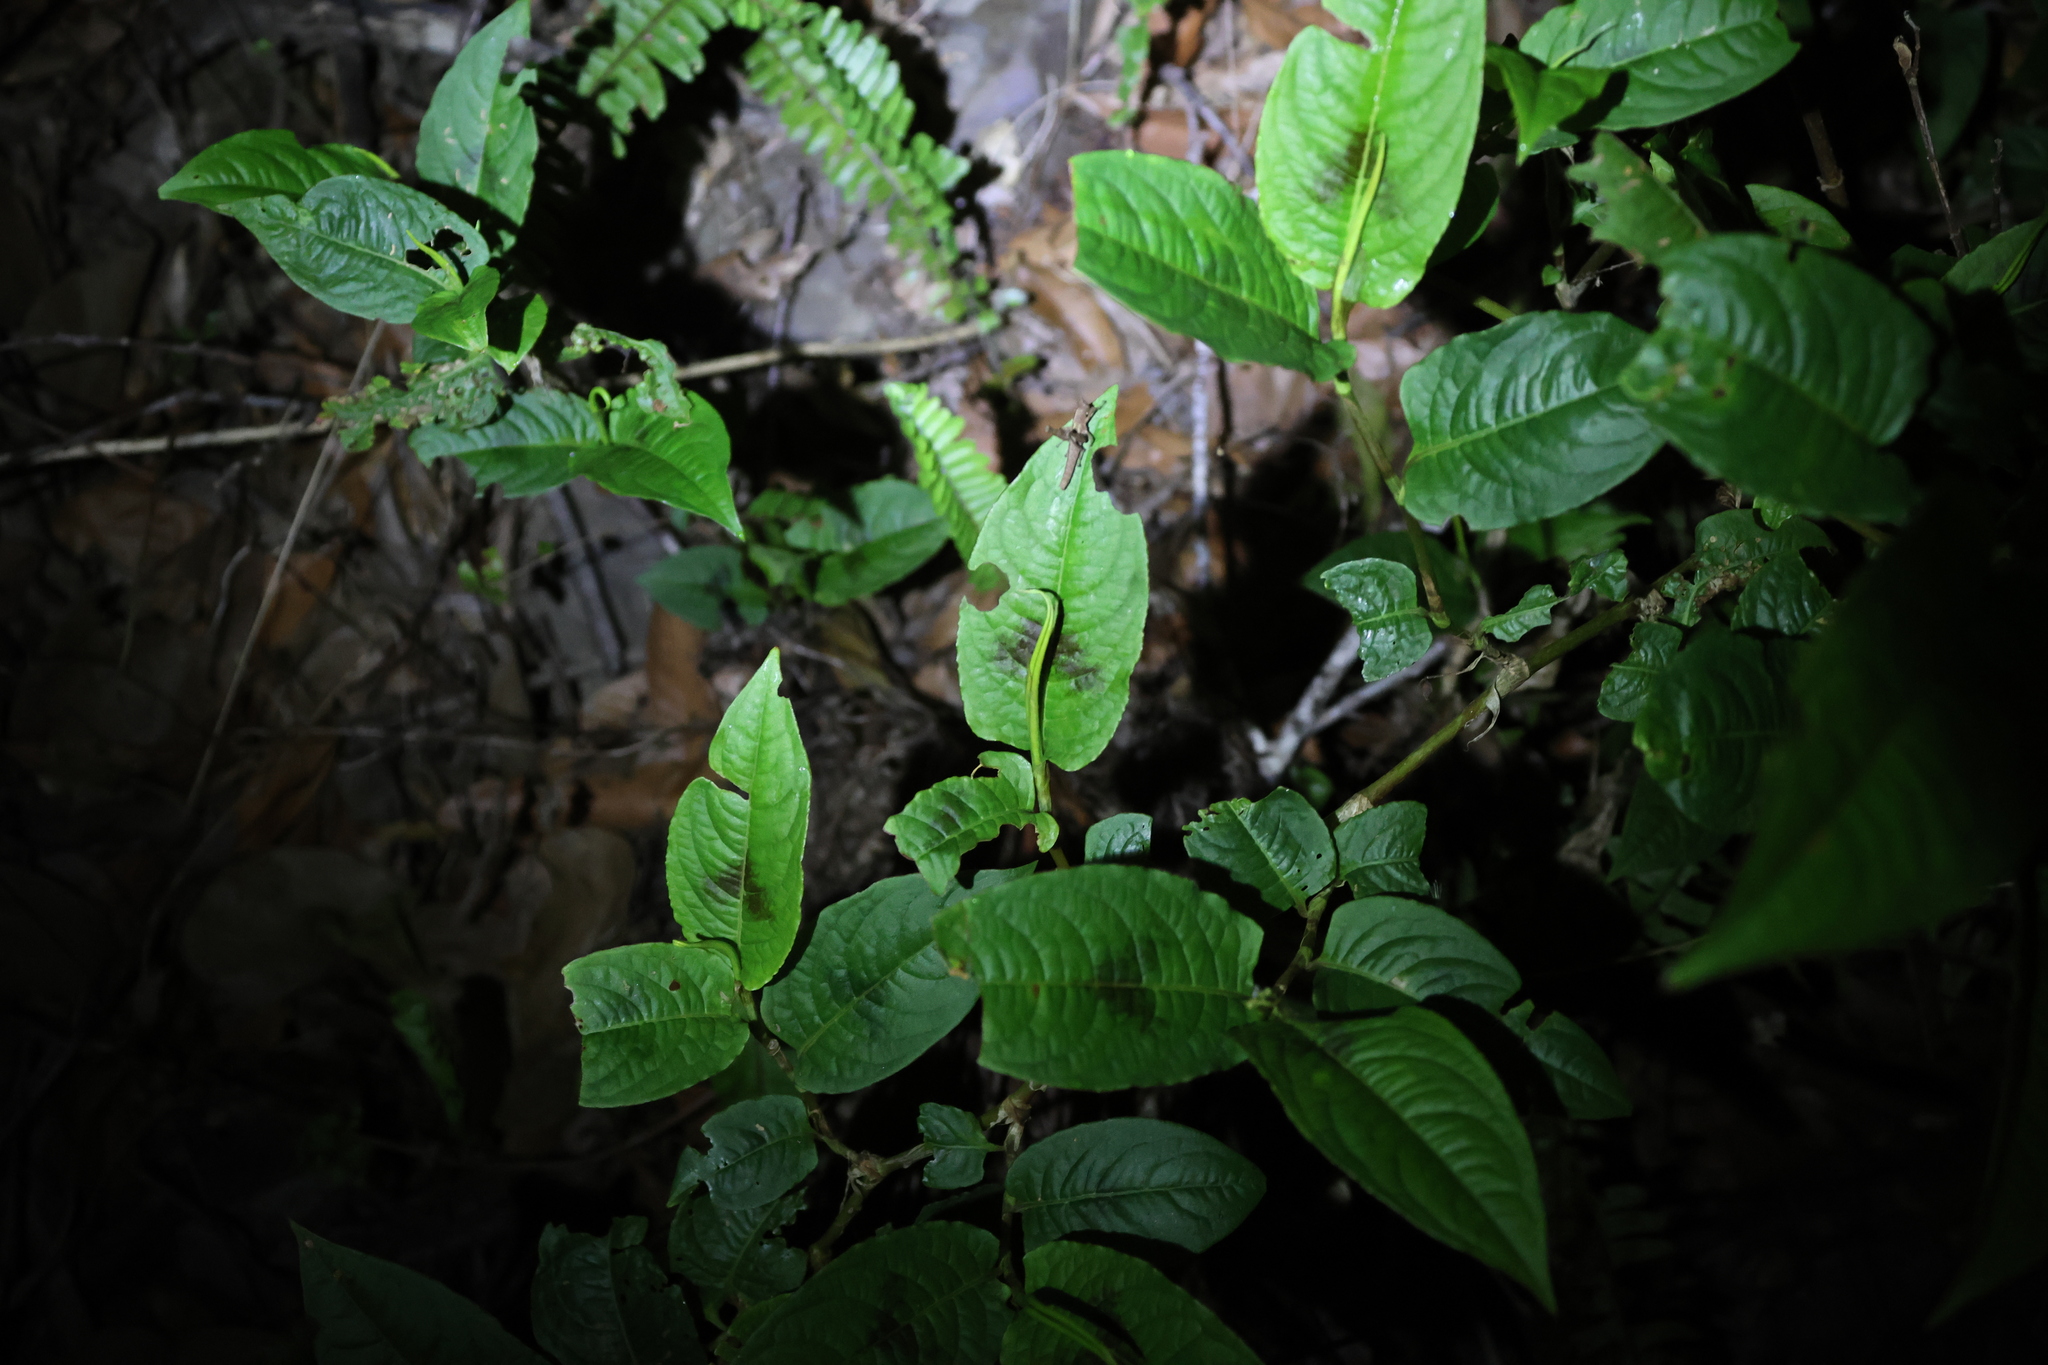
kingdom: Plantae
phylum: Tracheophyta
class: Magnoliopsida
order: Caryophyllales
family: Polygonaceae
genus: Persicaria
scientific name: Persicaria chinensis
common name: Chinese knotweed
